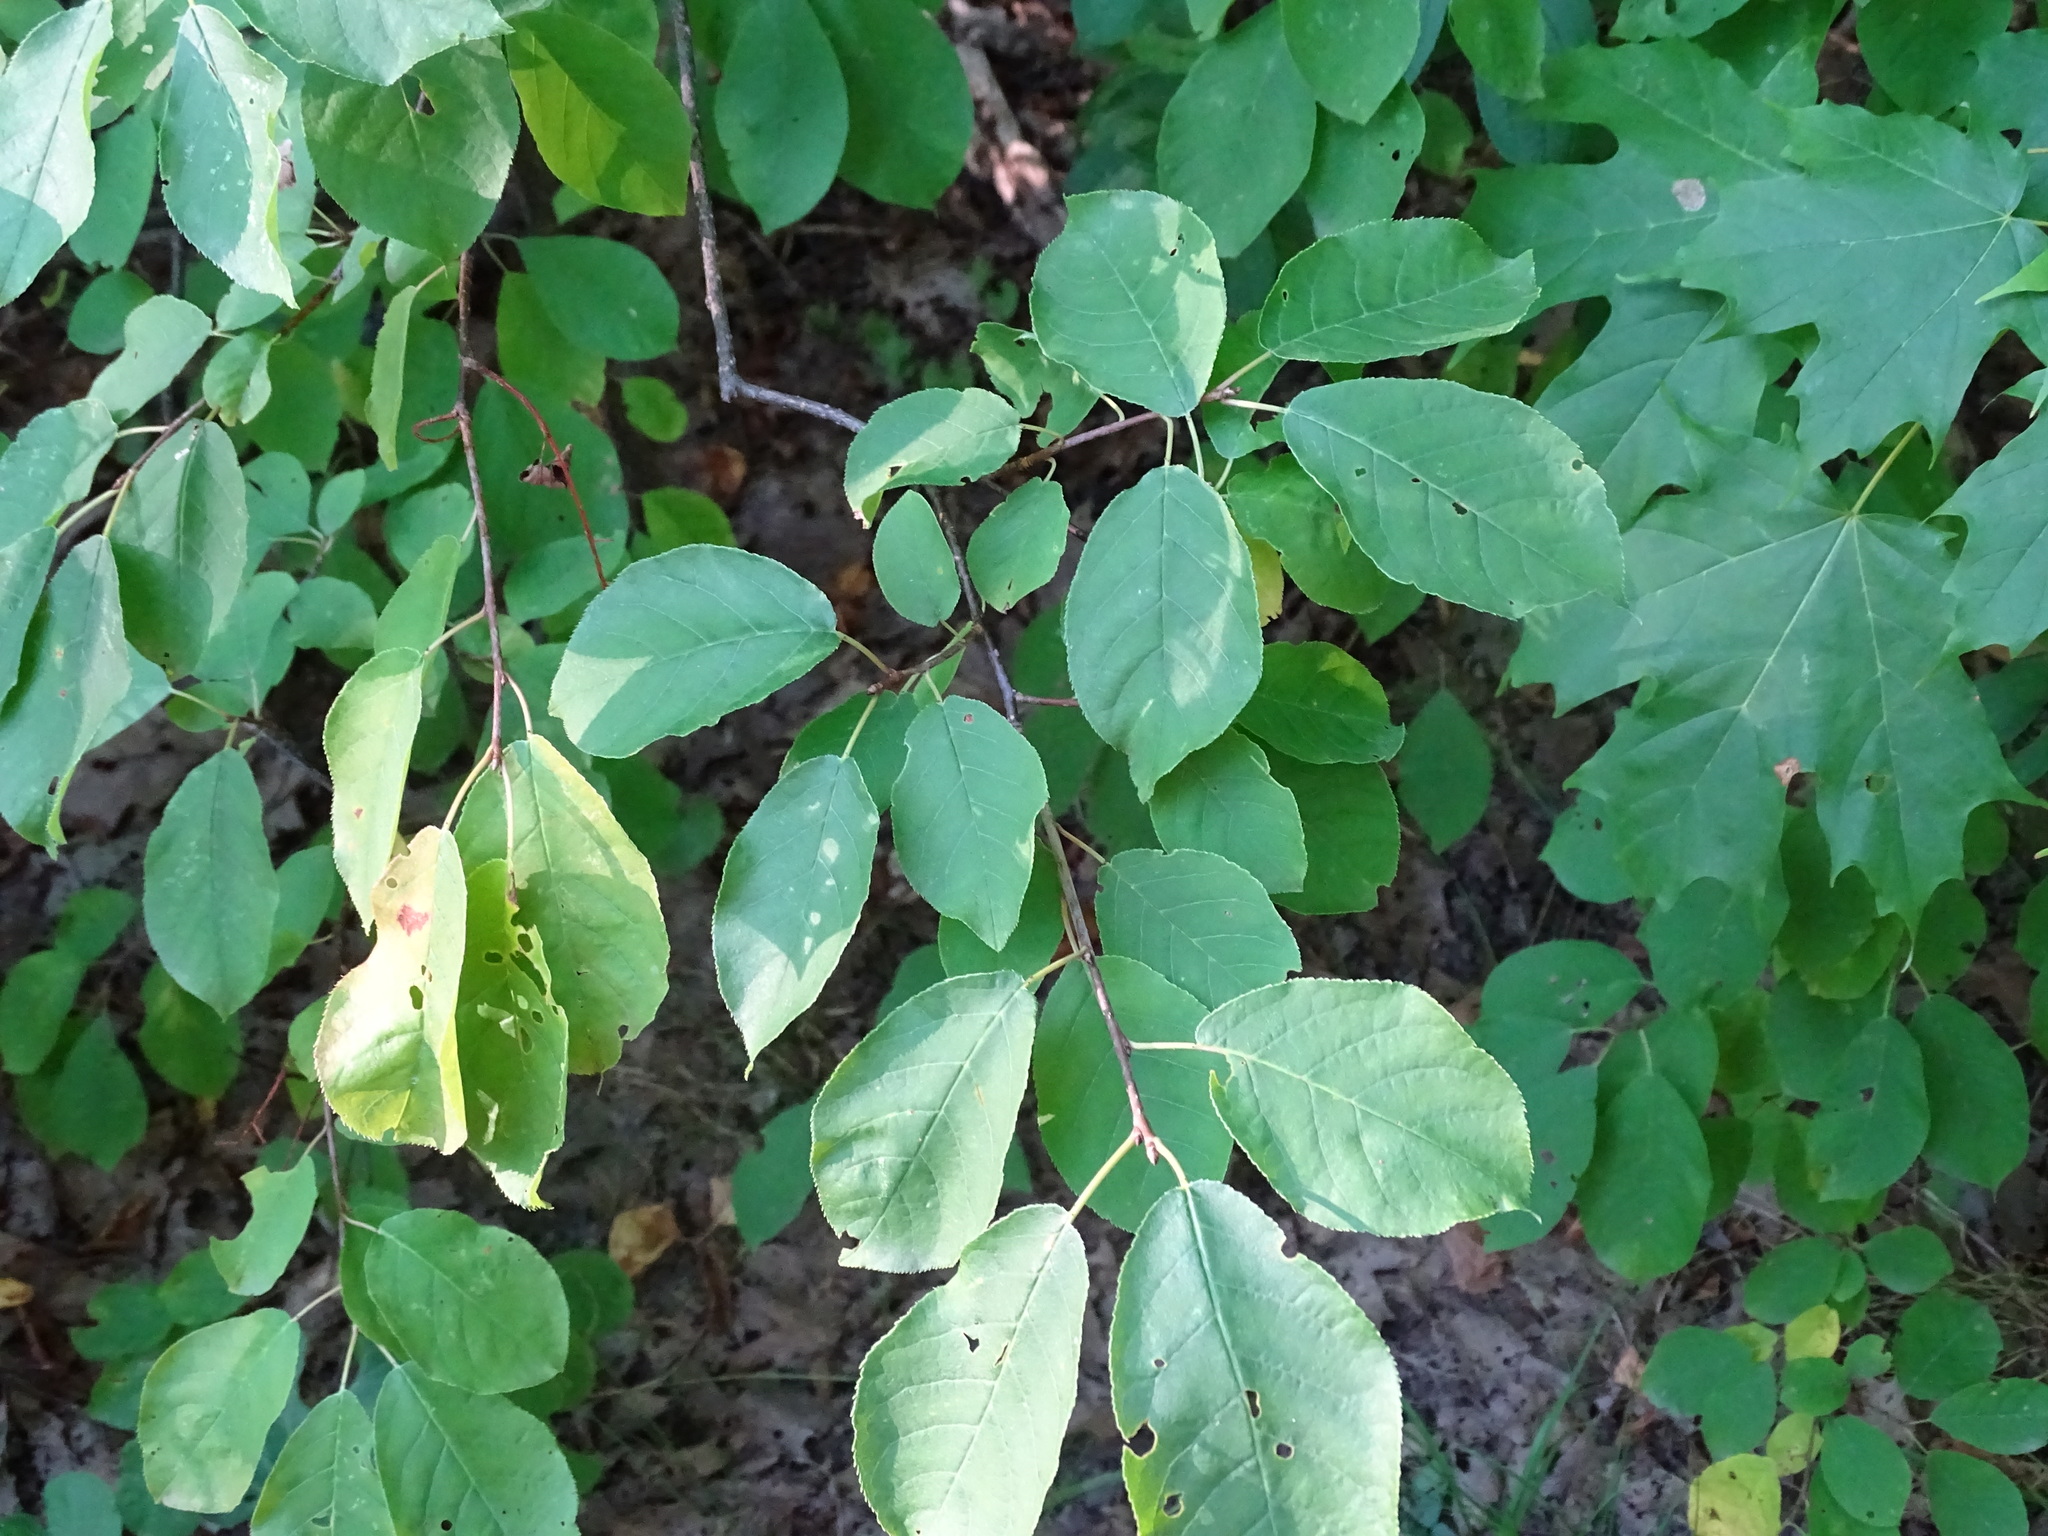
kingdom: Plantae
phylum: Tracheophyta
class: Magnoliopsida
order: Rosales
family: Rosaceae
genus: Prunus
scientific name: Prunus virginiana
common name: Chokecherry
